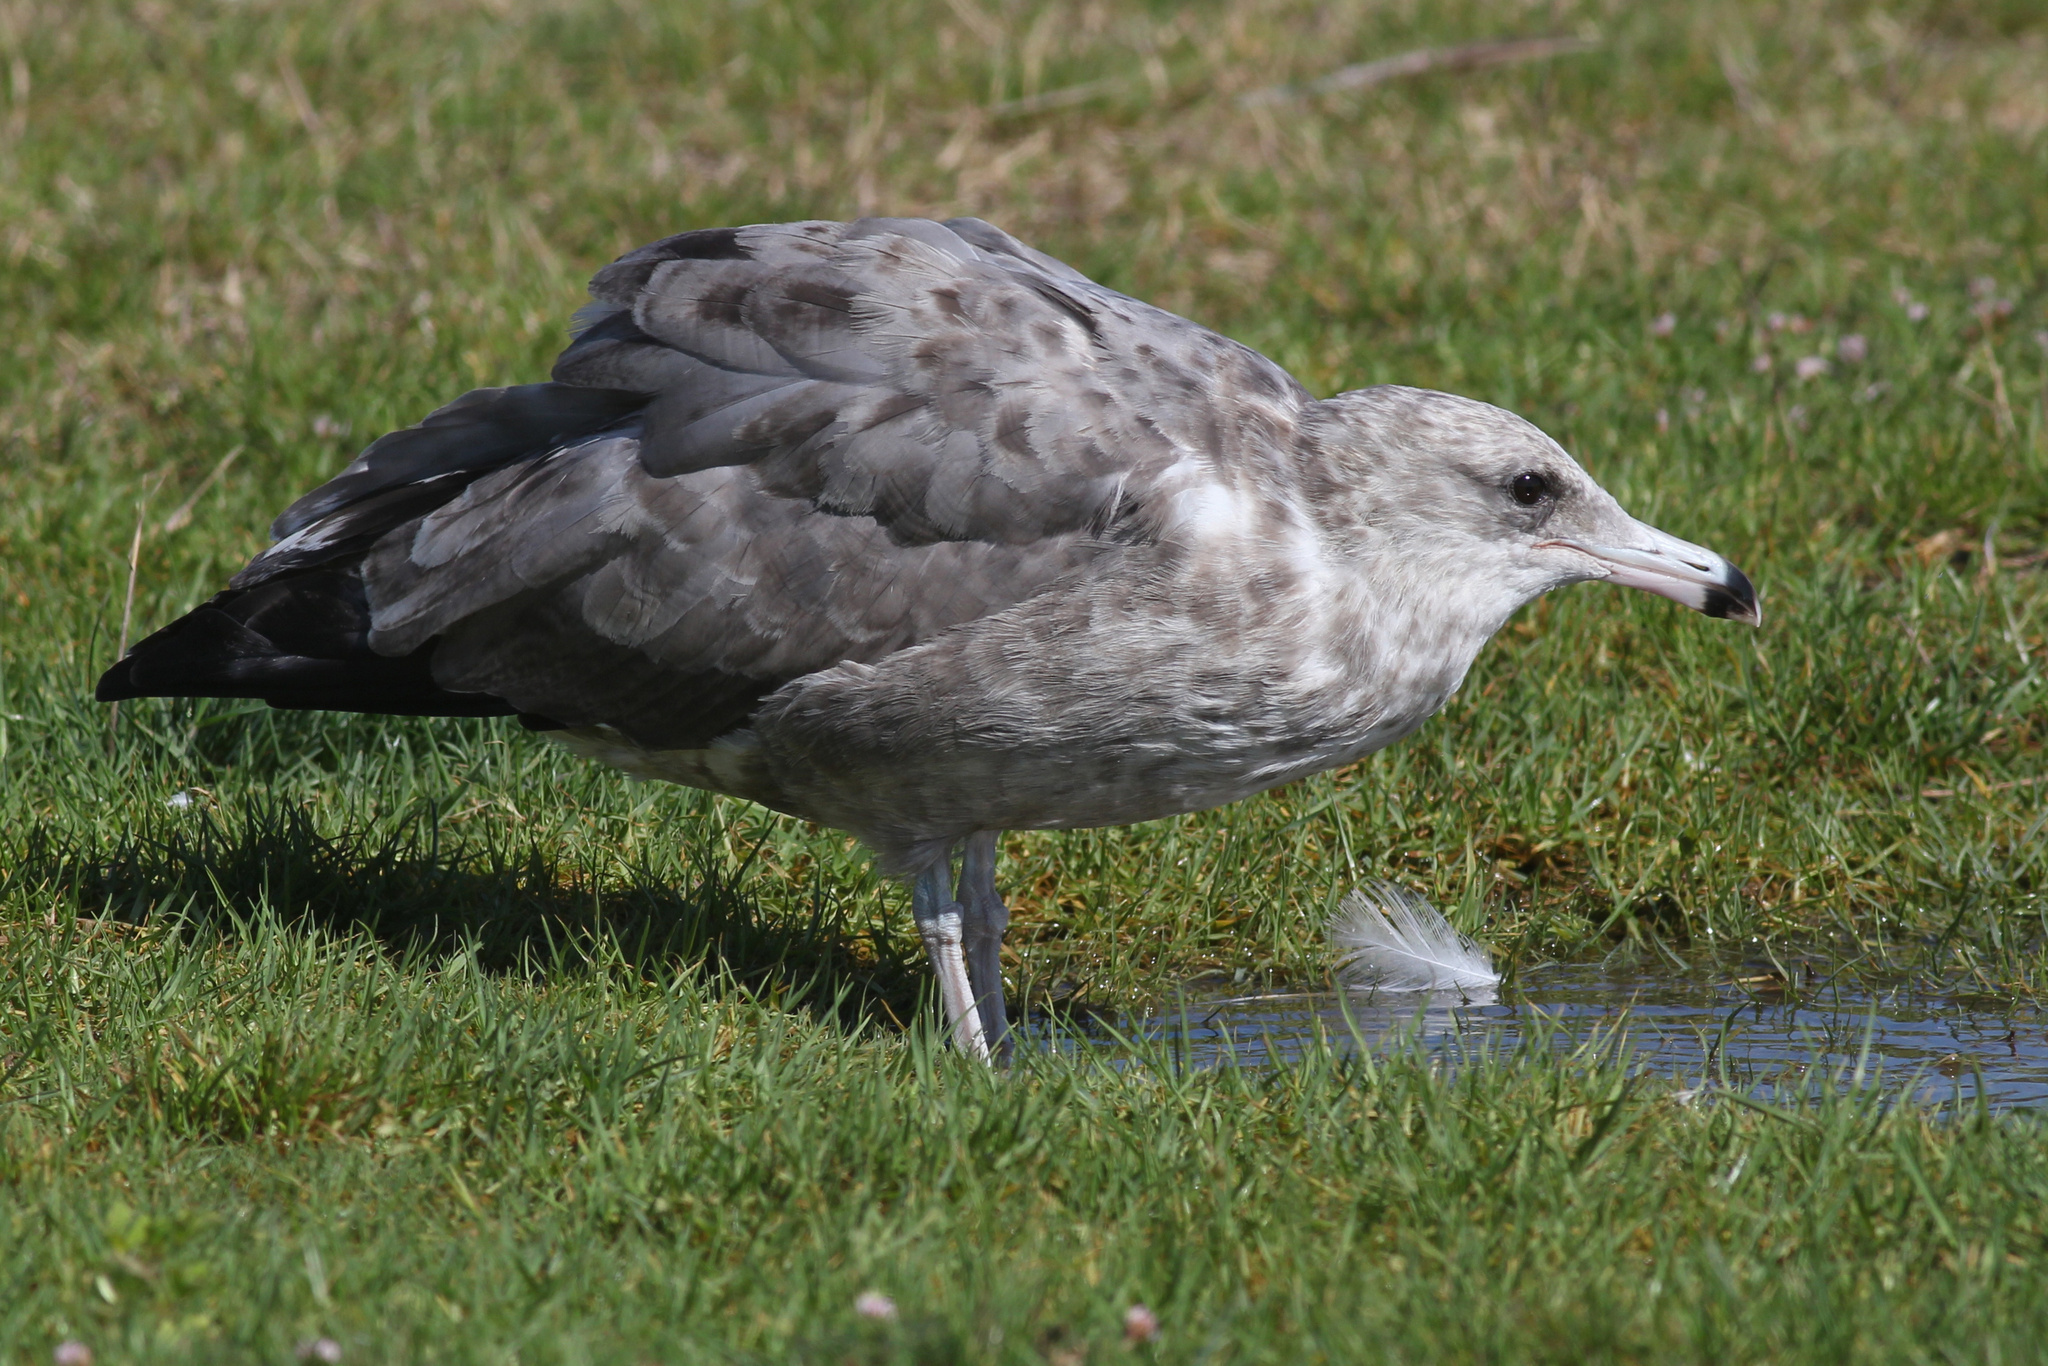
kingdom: Animalia
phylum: Chordata
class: Aves
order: Charadriiformes
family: Laridae
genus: Larus
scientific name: Larus californicus
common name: California gull
